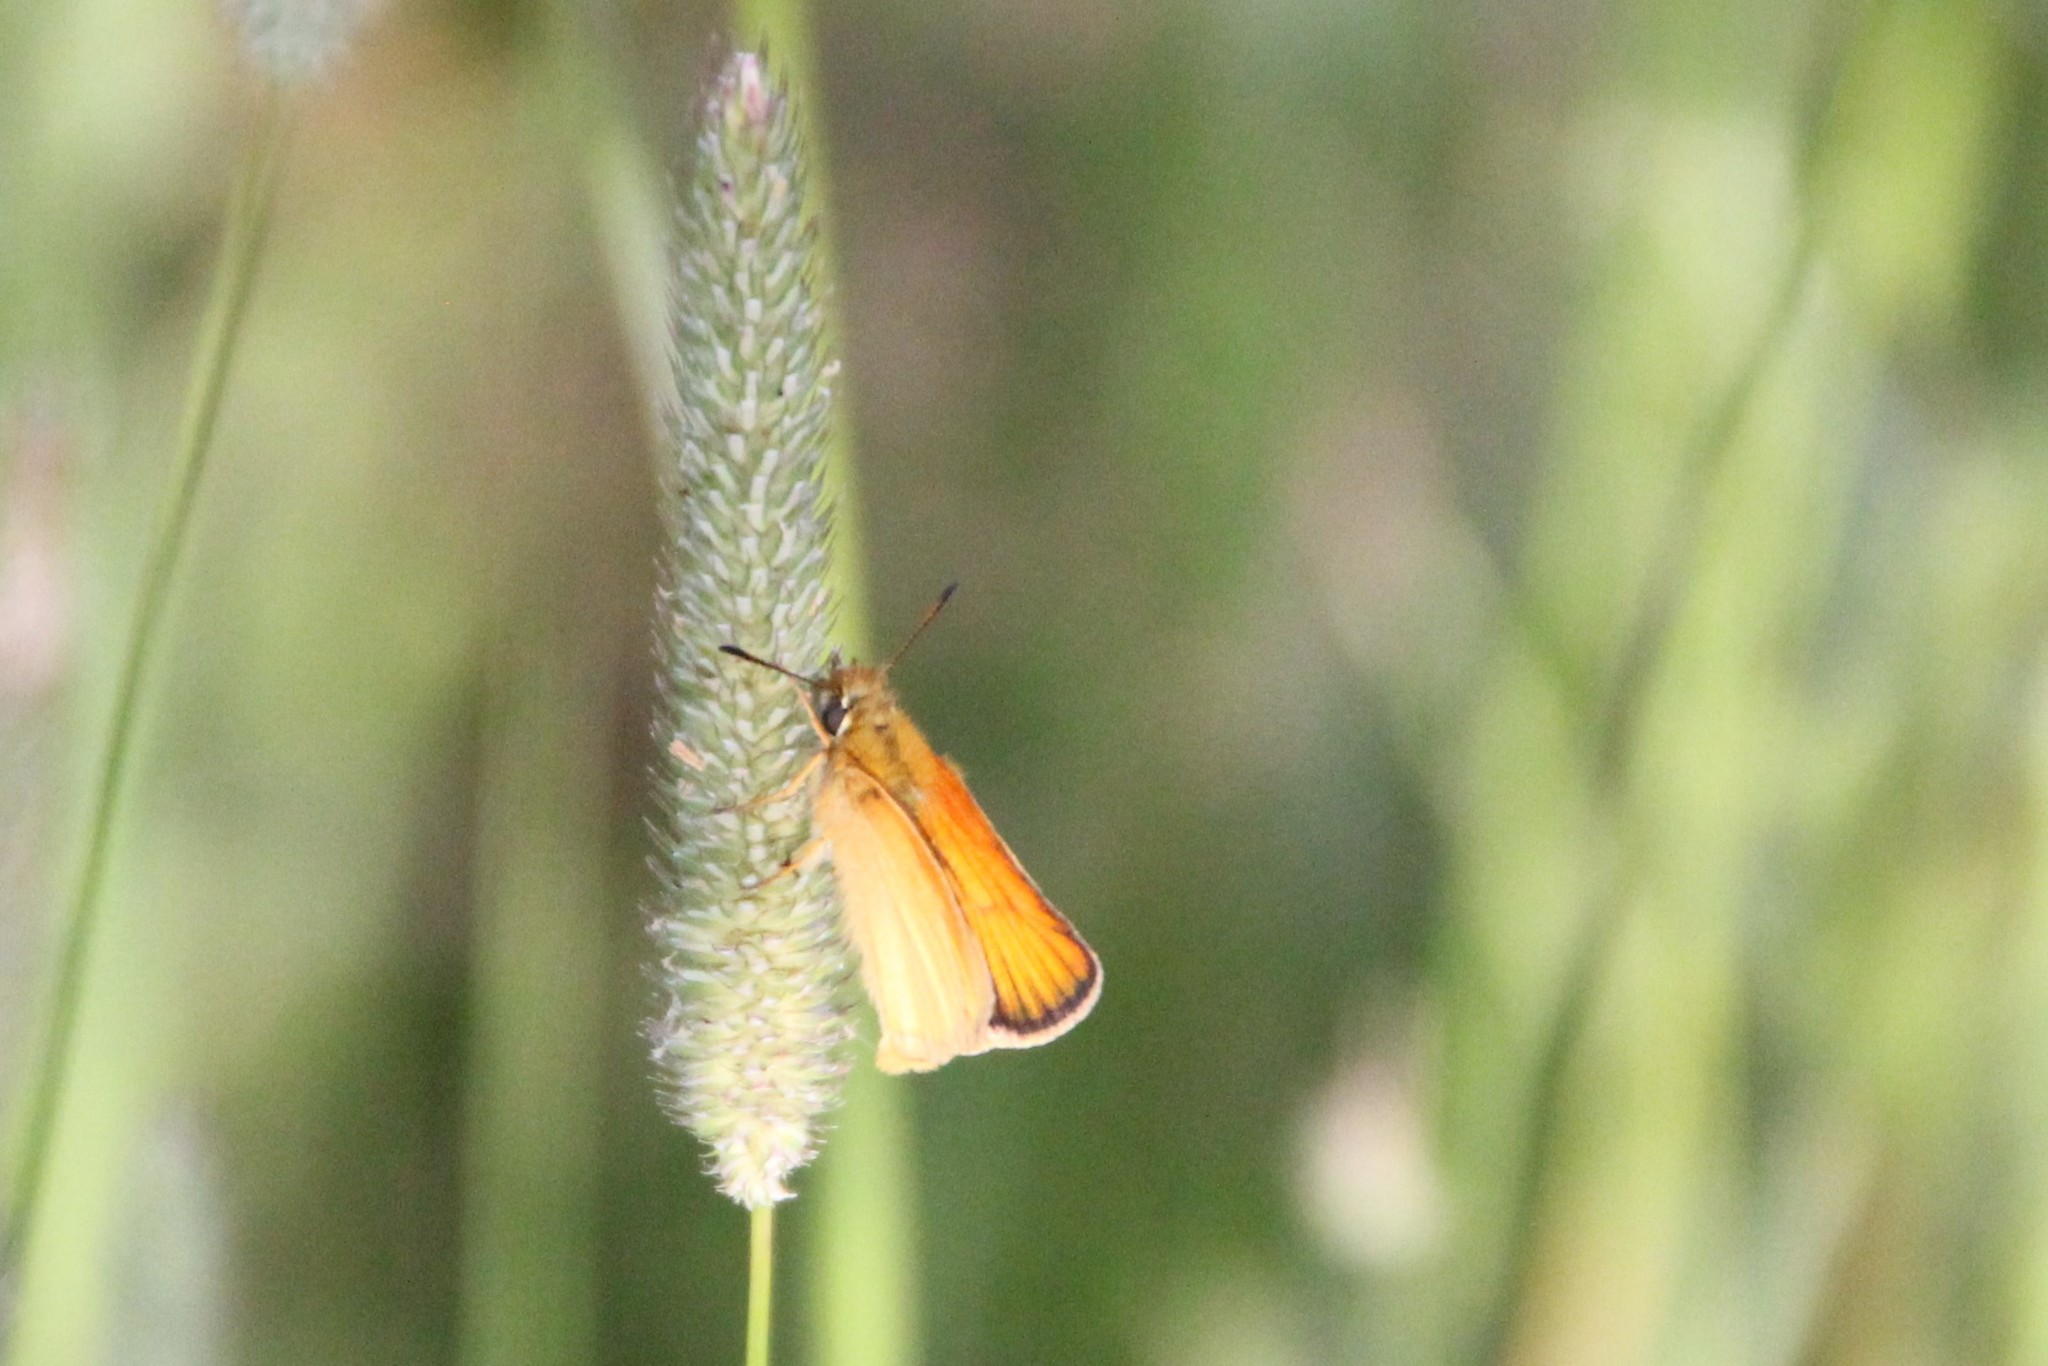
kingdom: Animalia
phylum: Arthropoda
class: Insecta
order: Lepidoptera
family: Hesperiidae
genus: Thymelicus
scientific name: Thymelicus lineola
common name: Essex skipper
